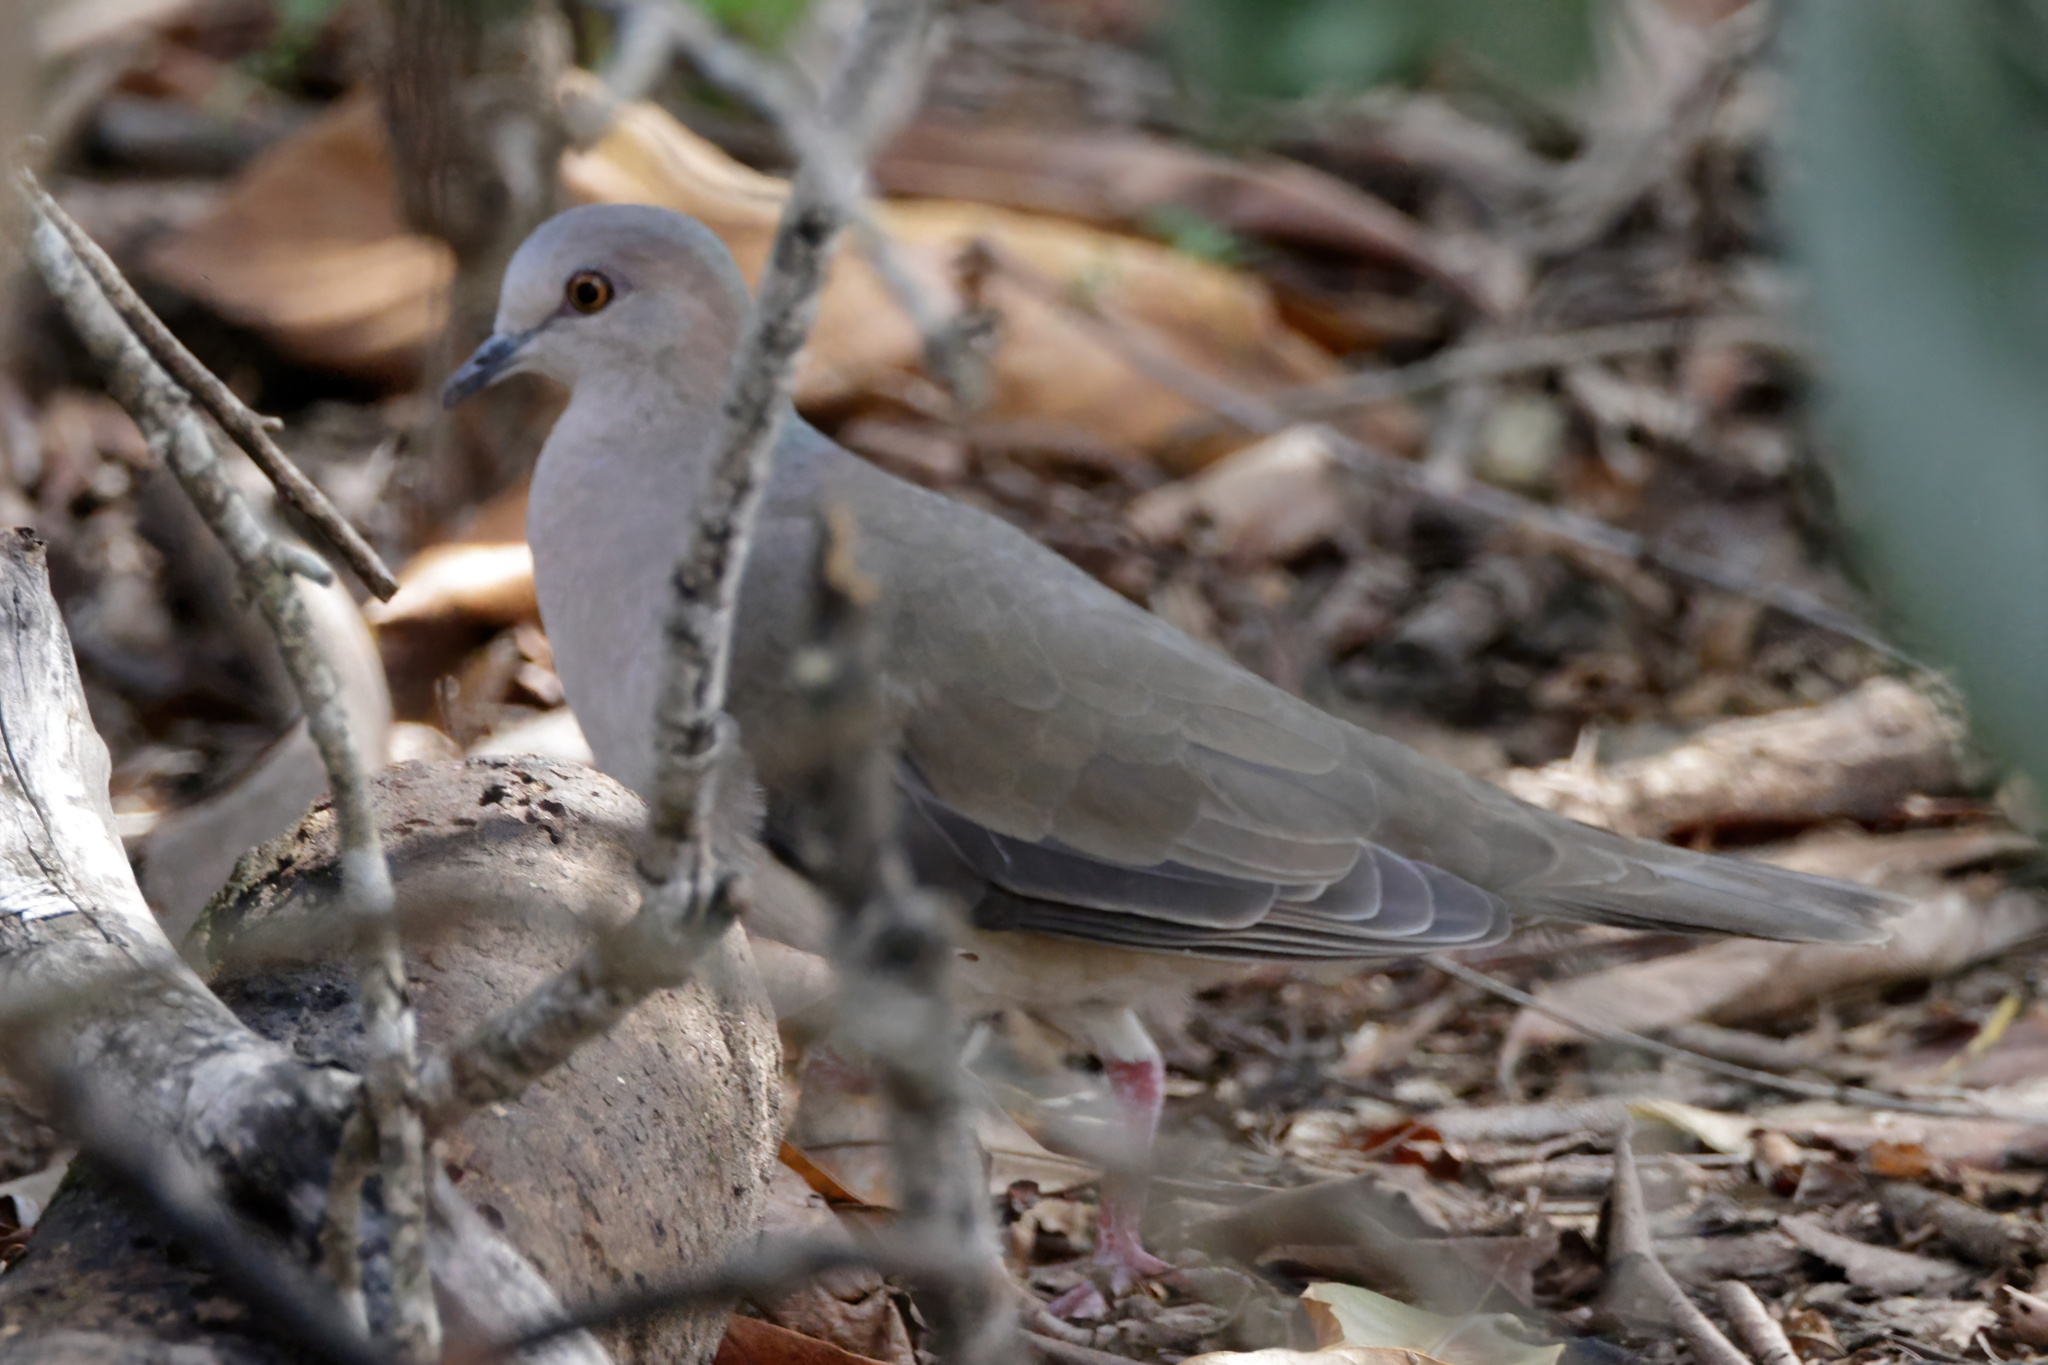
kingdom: Animalia
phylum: Chordata
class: Aves
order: Columbiformes
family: Columbidae
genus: Leptotila
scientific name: Leptotila verreauxi
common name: White-tipped dove
